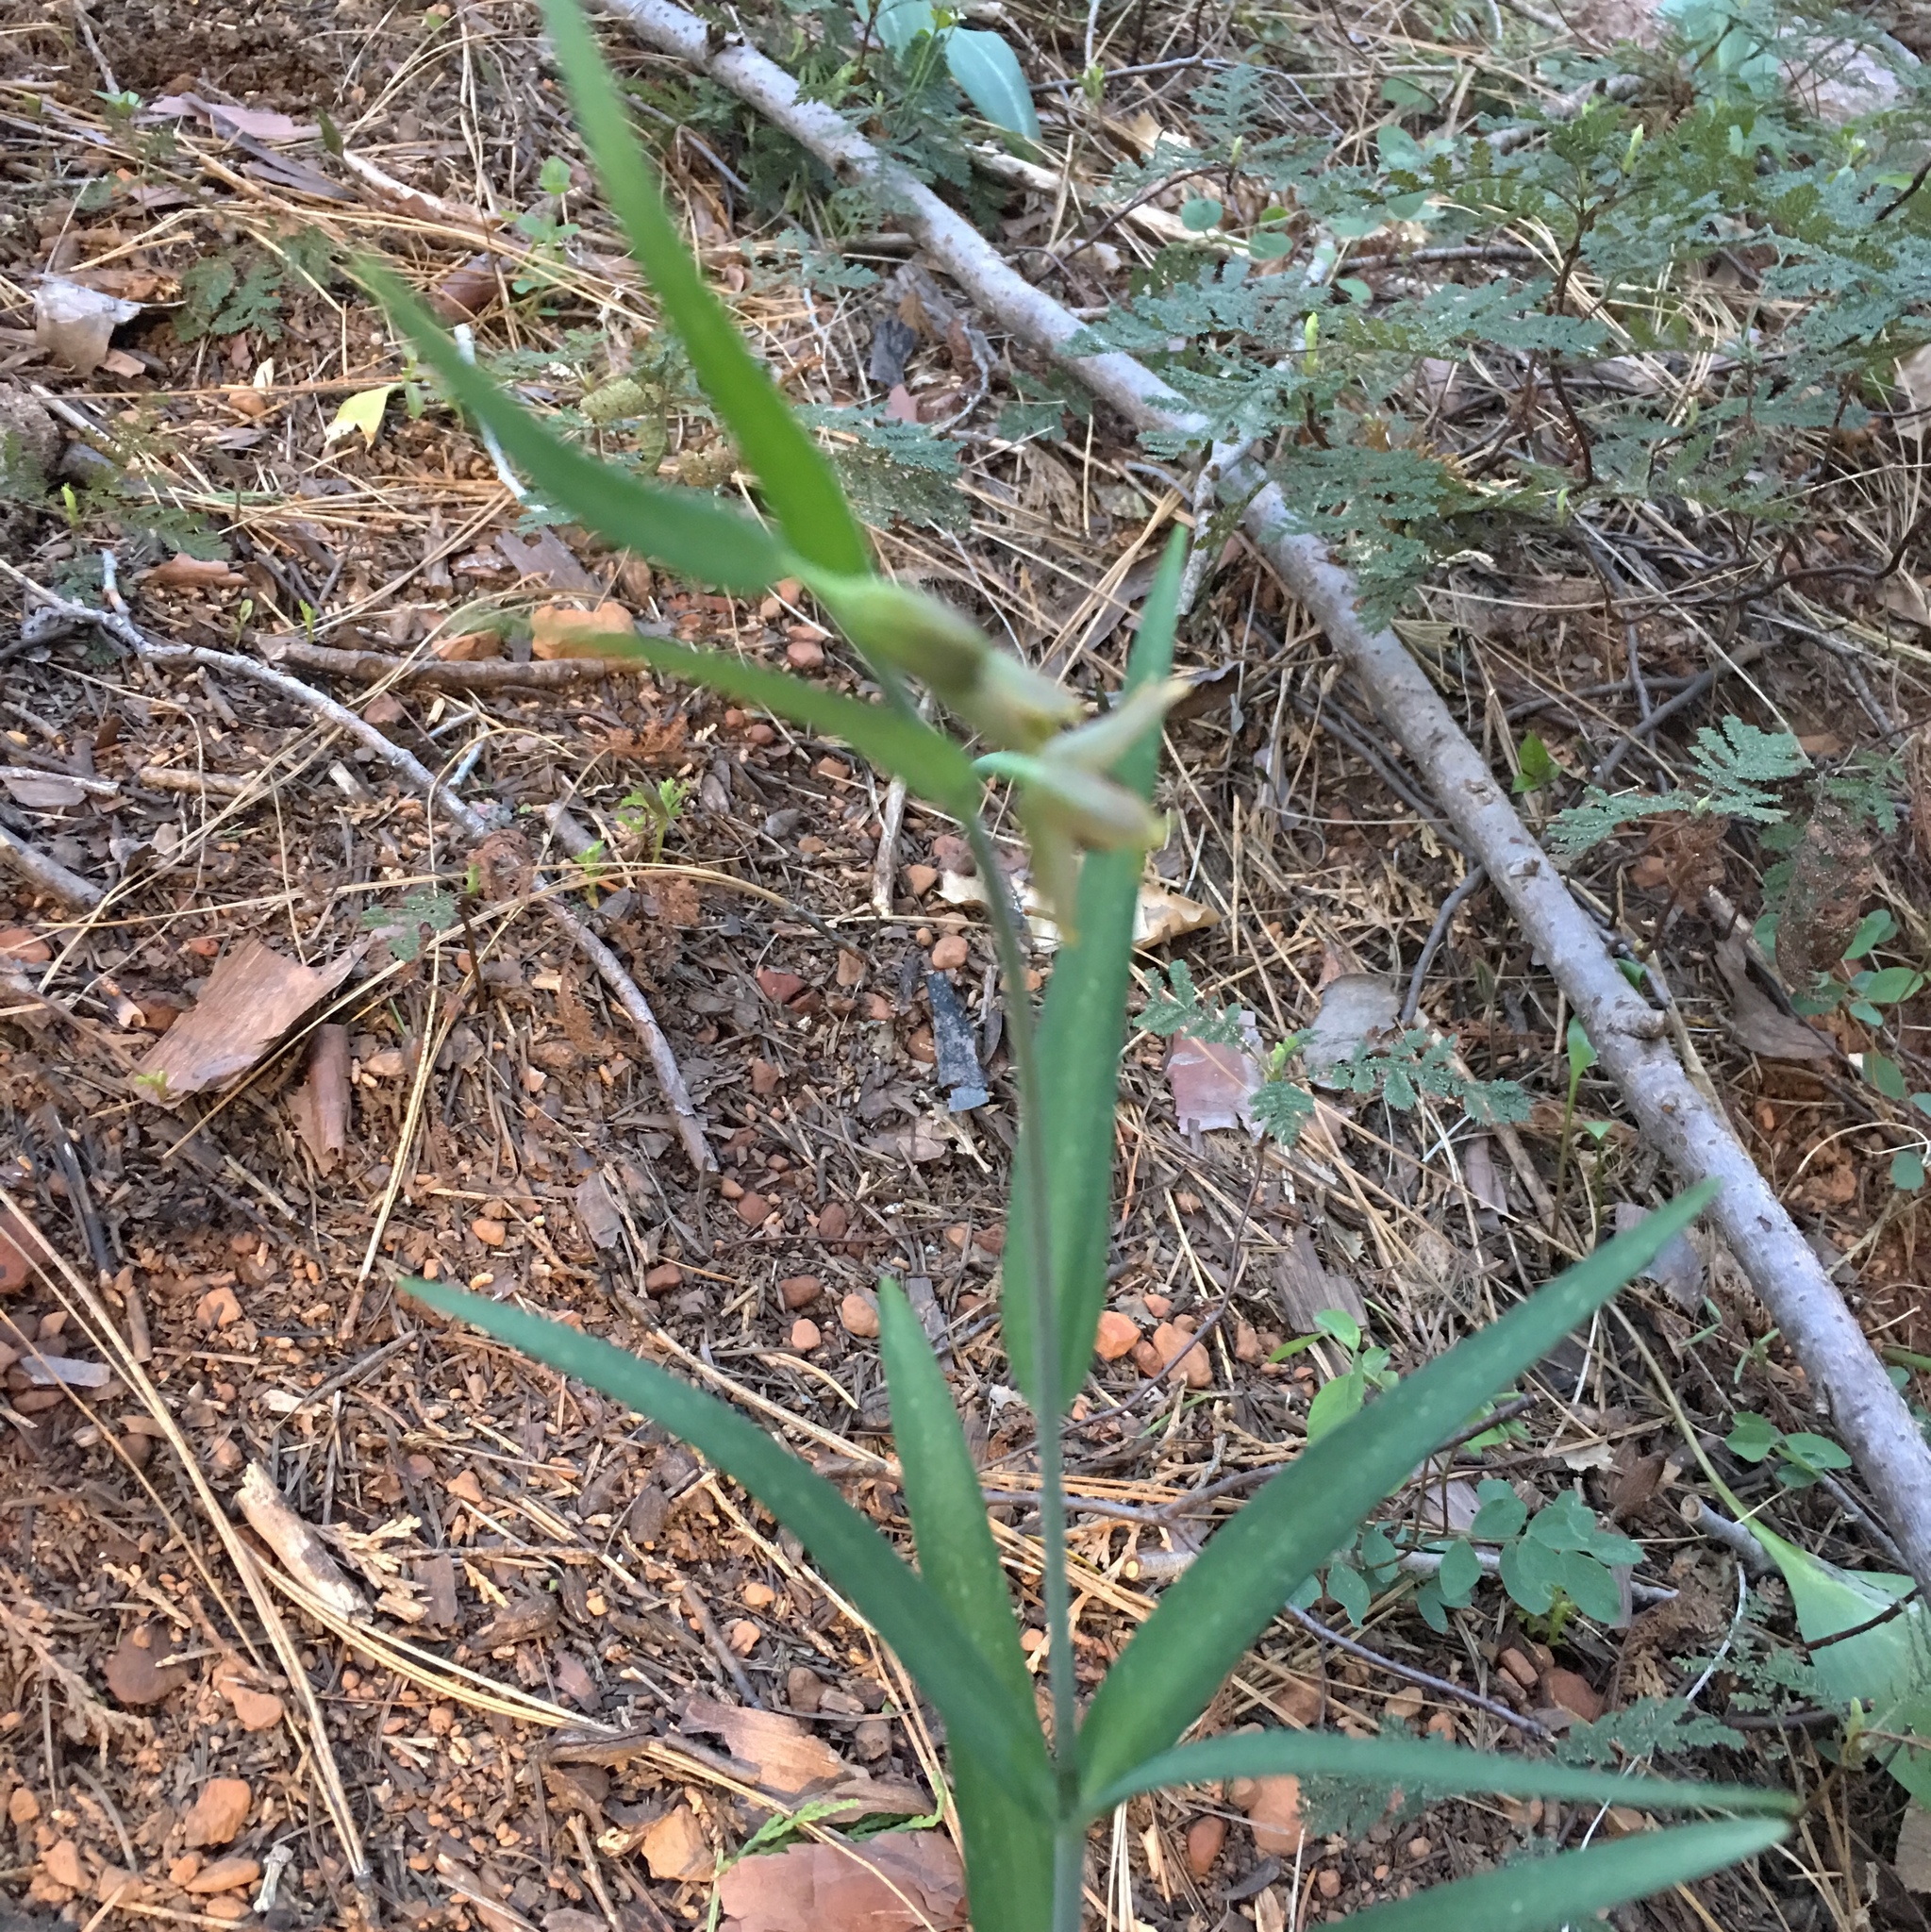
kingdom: Plantae
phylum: Tracheophyta
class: Liliopsida
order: Liliales
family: Liliaceae
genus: Fritillaria
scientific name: Fritillaria micrantha
